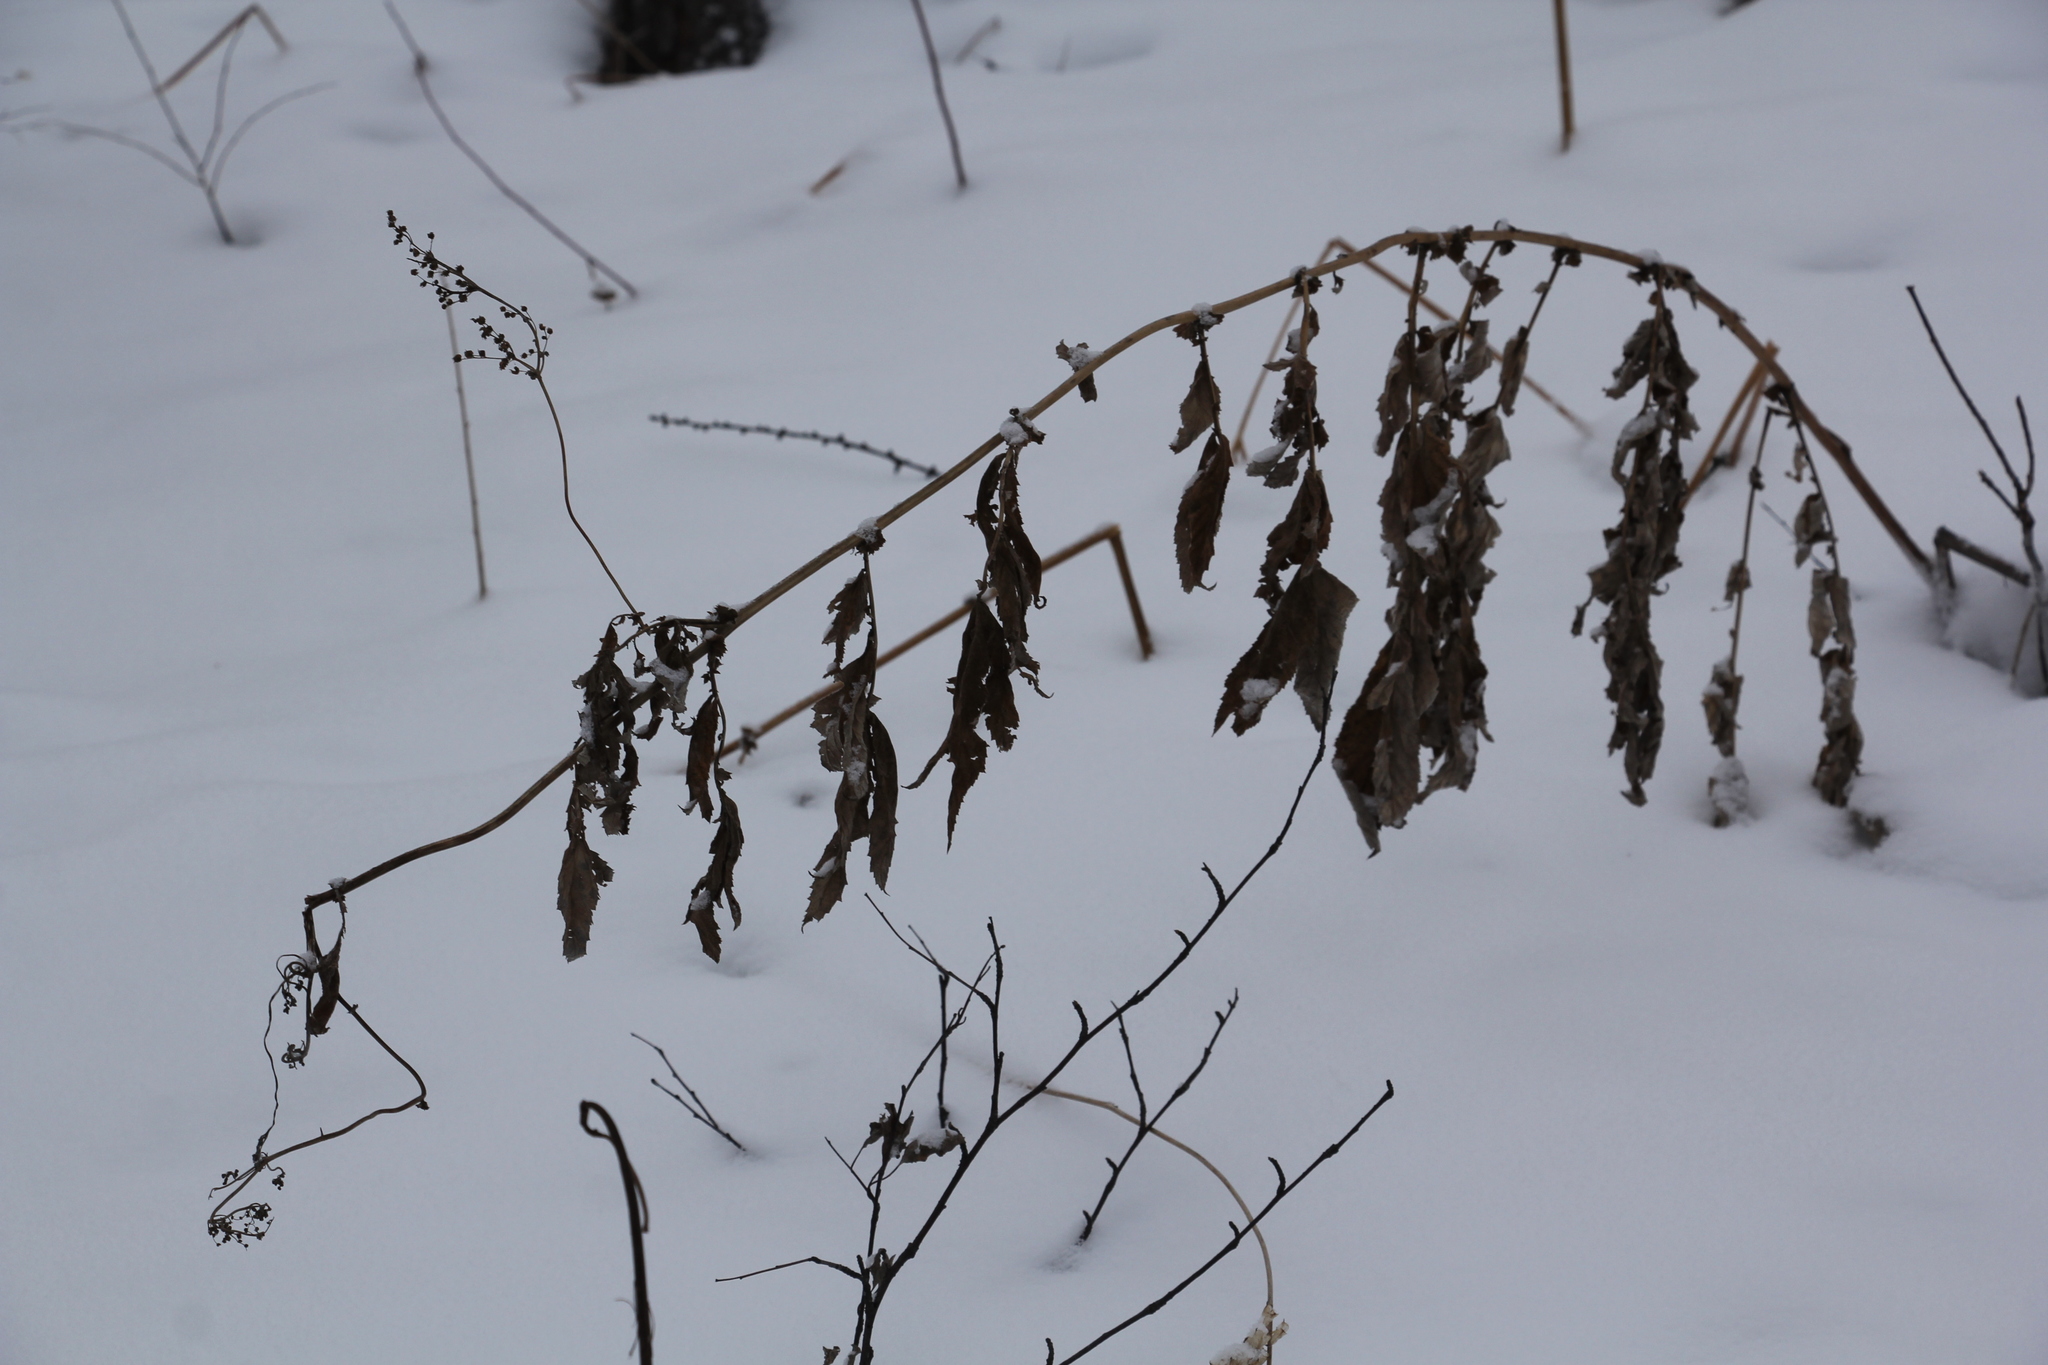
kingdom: Plantae
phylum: Tracheophyta
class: Magnoliopsida
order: Rosales
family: Rosaceae
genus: Filipendula
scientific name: Filipendula ulmaria
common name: Meadowsweet
